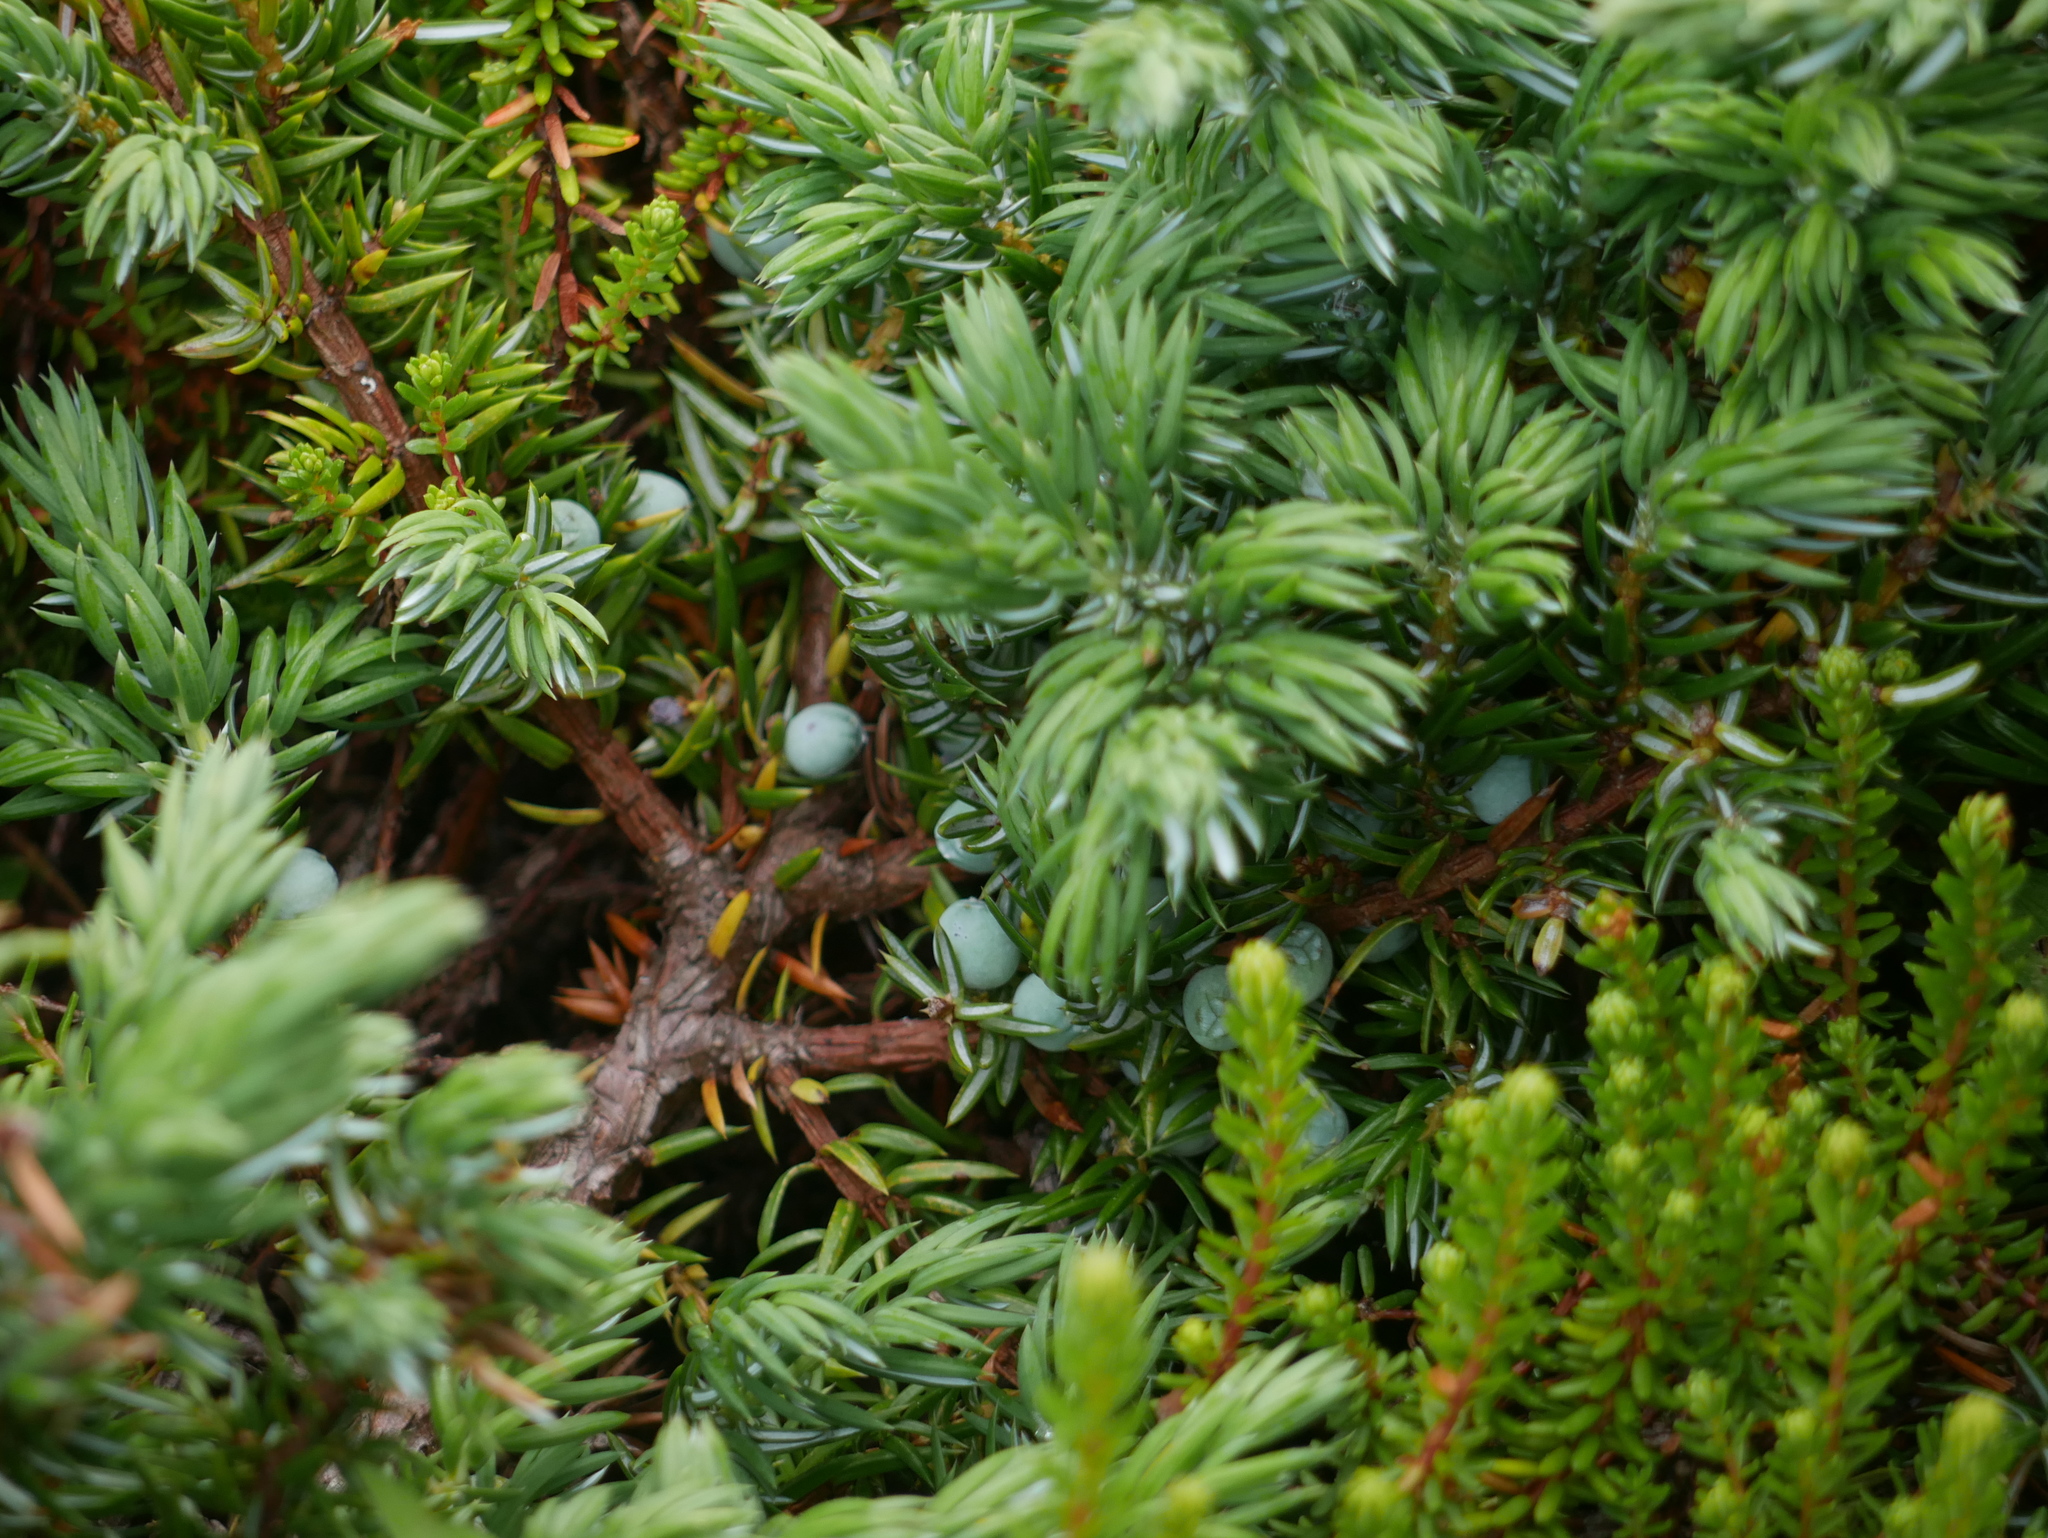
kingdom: Plantae
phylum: Tracheophyta
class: Pinopsida
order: Pinales
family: Cupressaceae
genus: Juniperus
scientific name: Juniperus communis
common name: Common juniper
